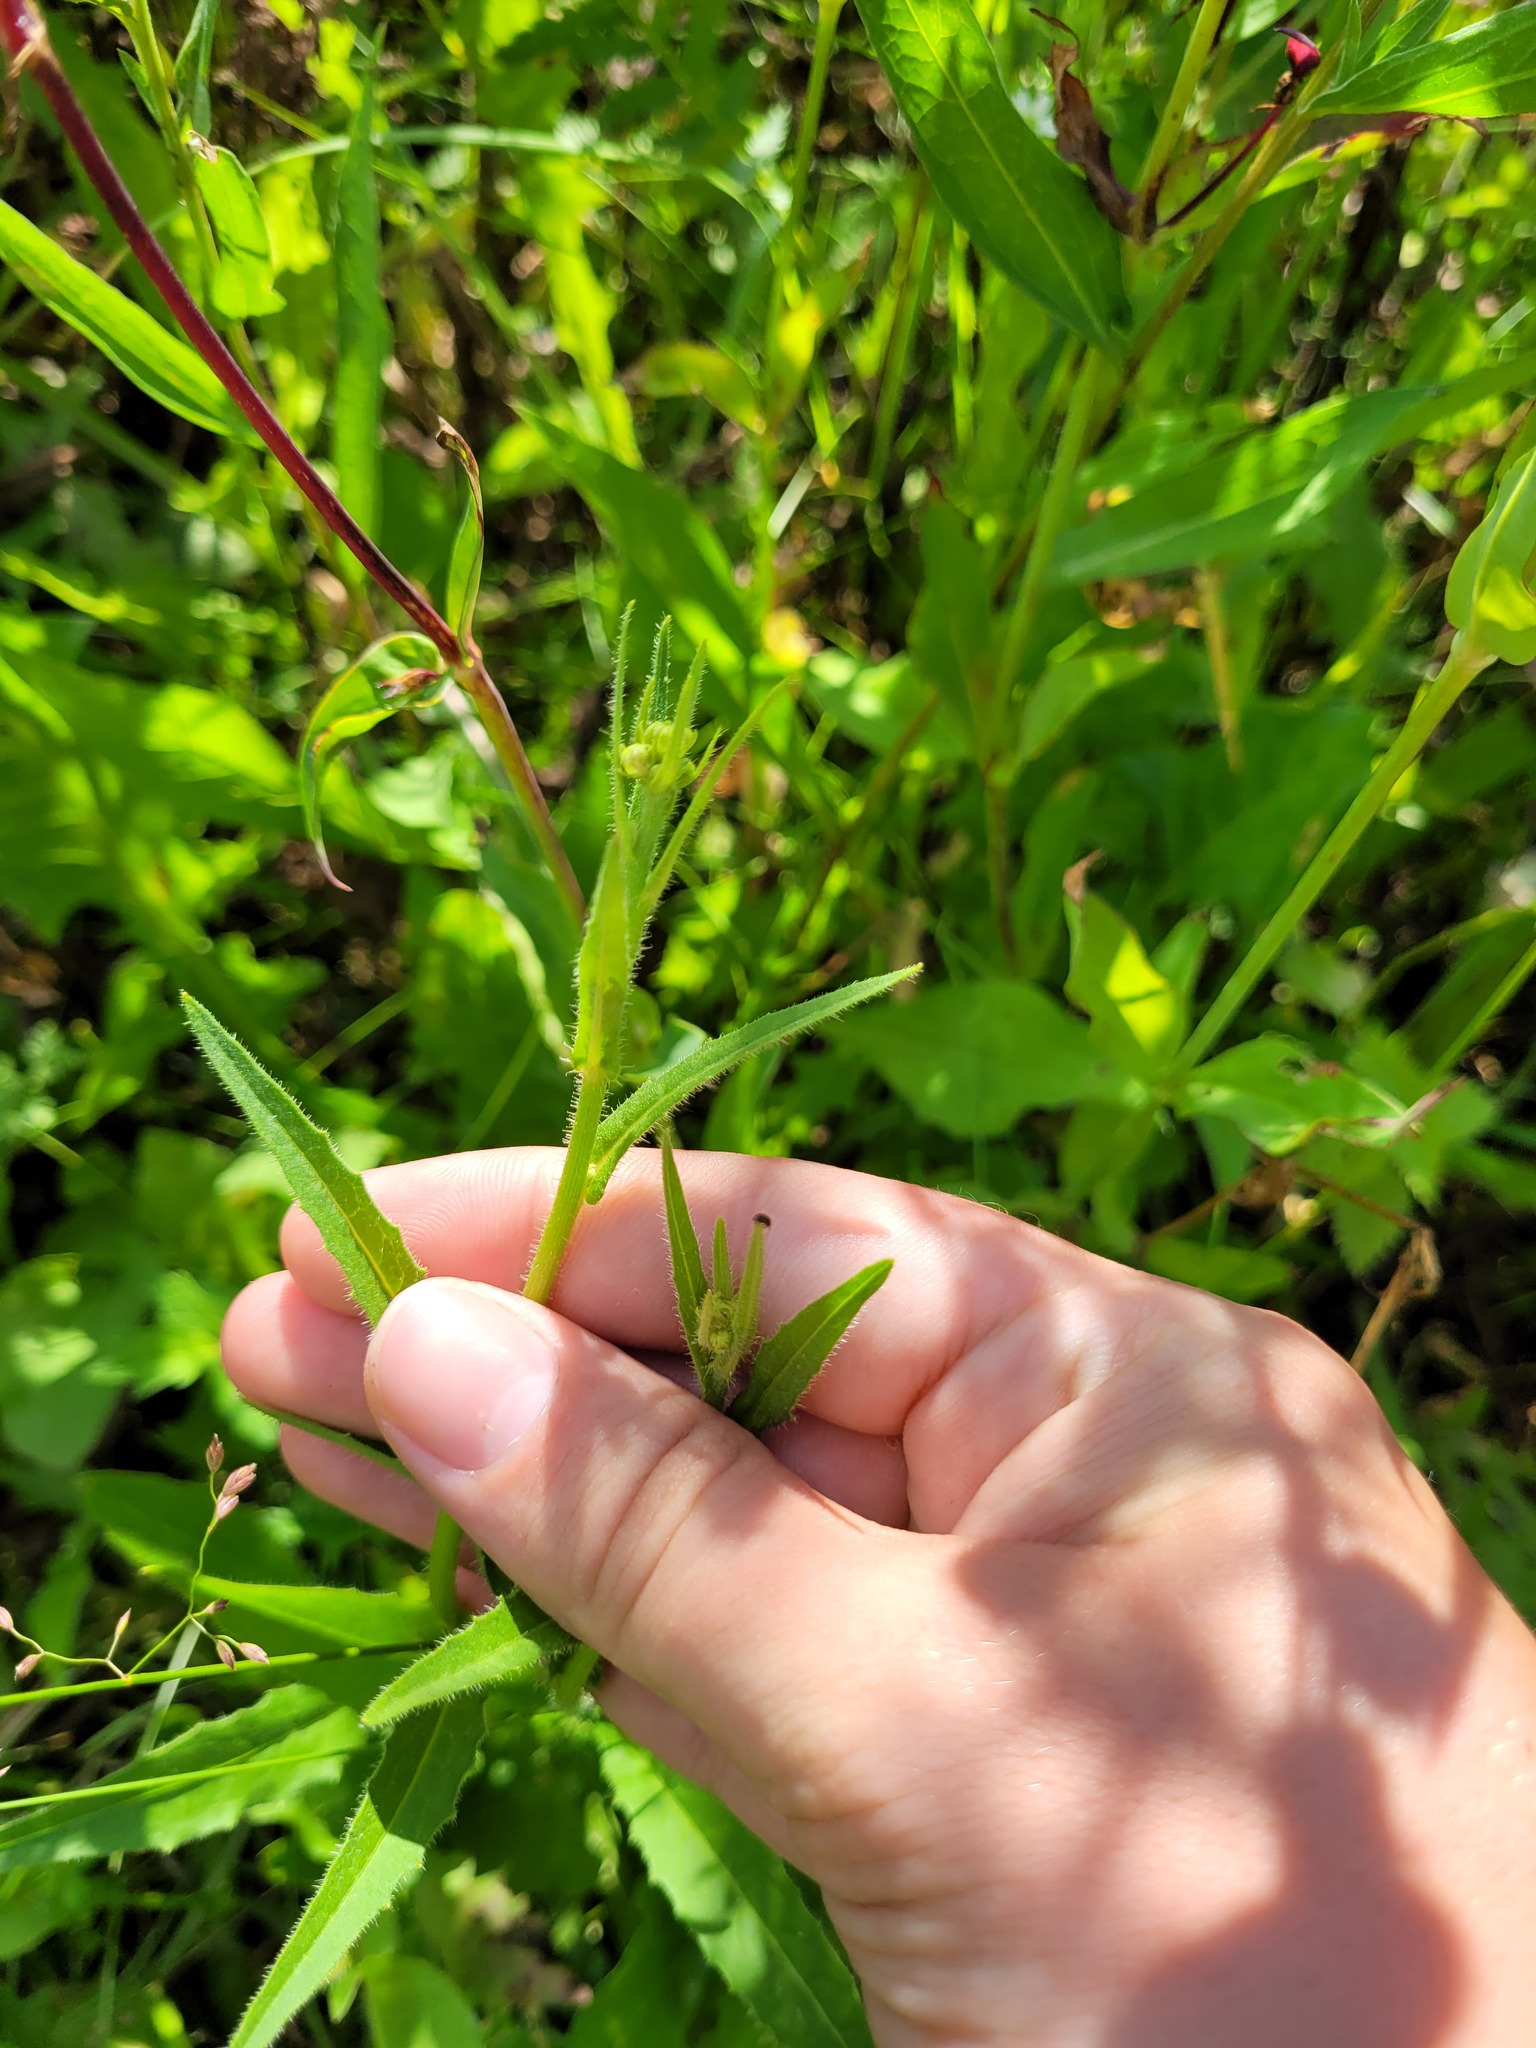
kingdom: Plantae
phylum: Tracheophyta
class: Magnoliopsida
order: Asterales
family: Asteraceae
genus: Picris
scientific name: Picris hieracioides
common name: Hawkweed oxtongue
